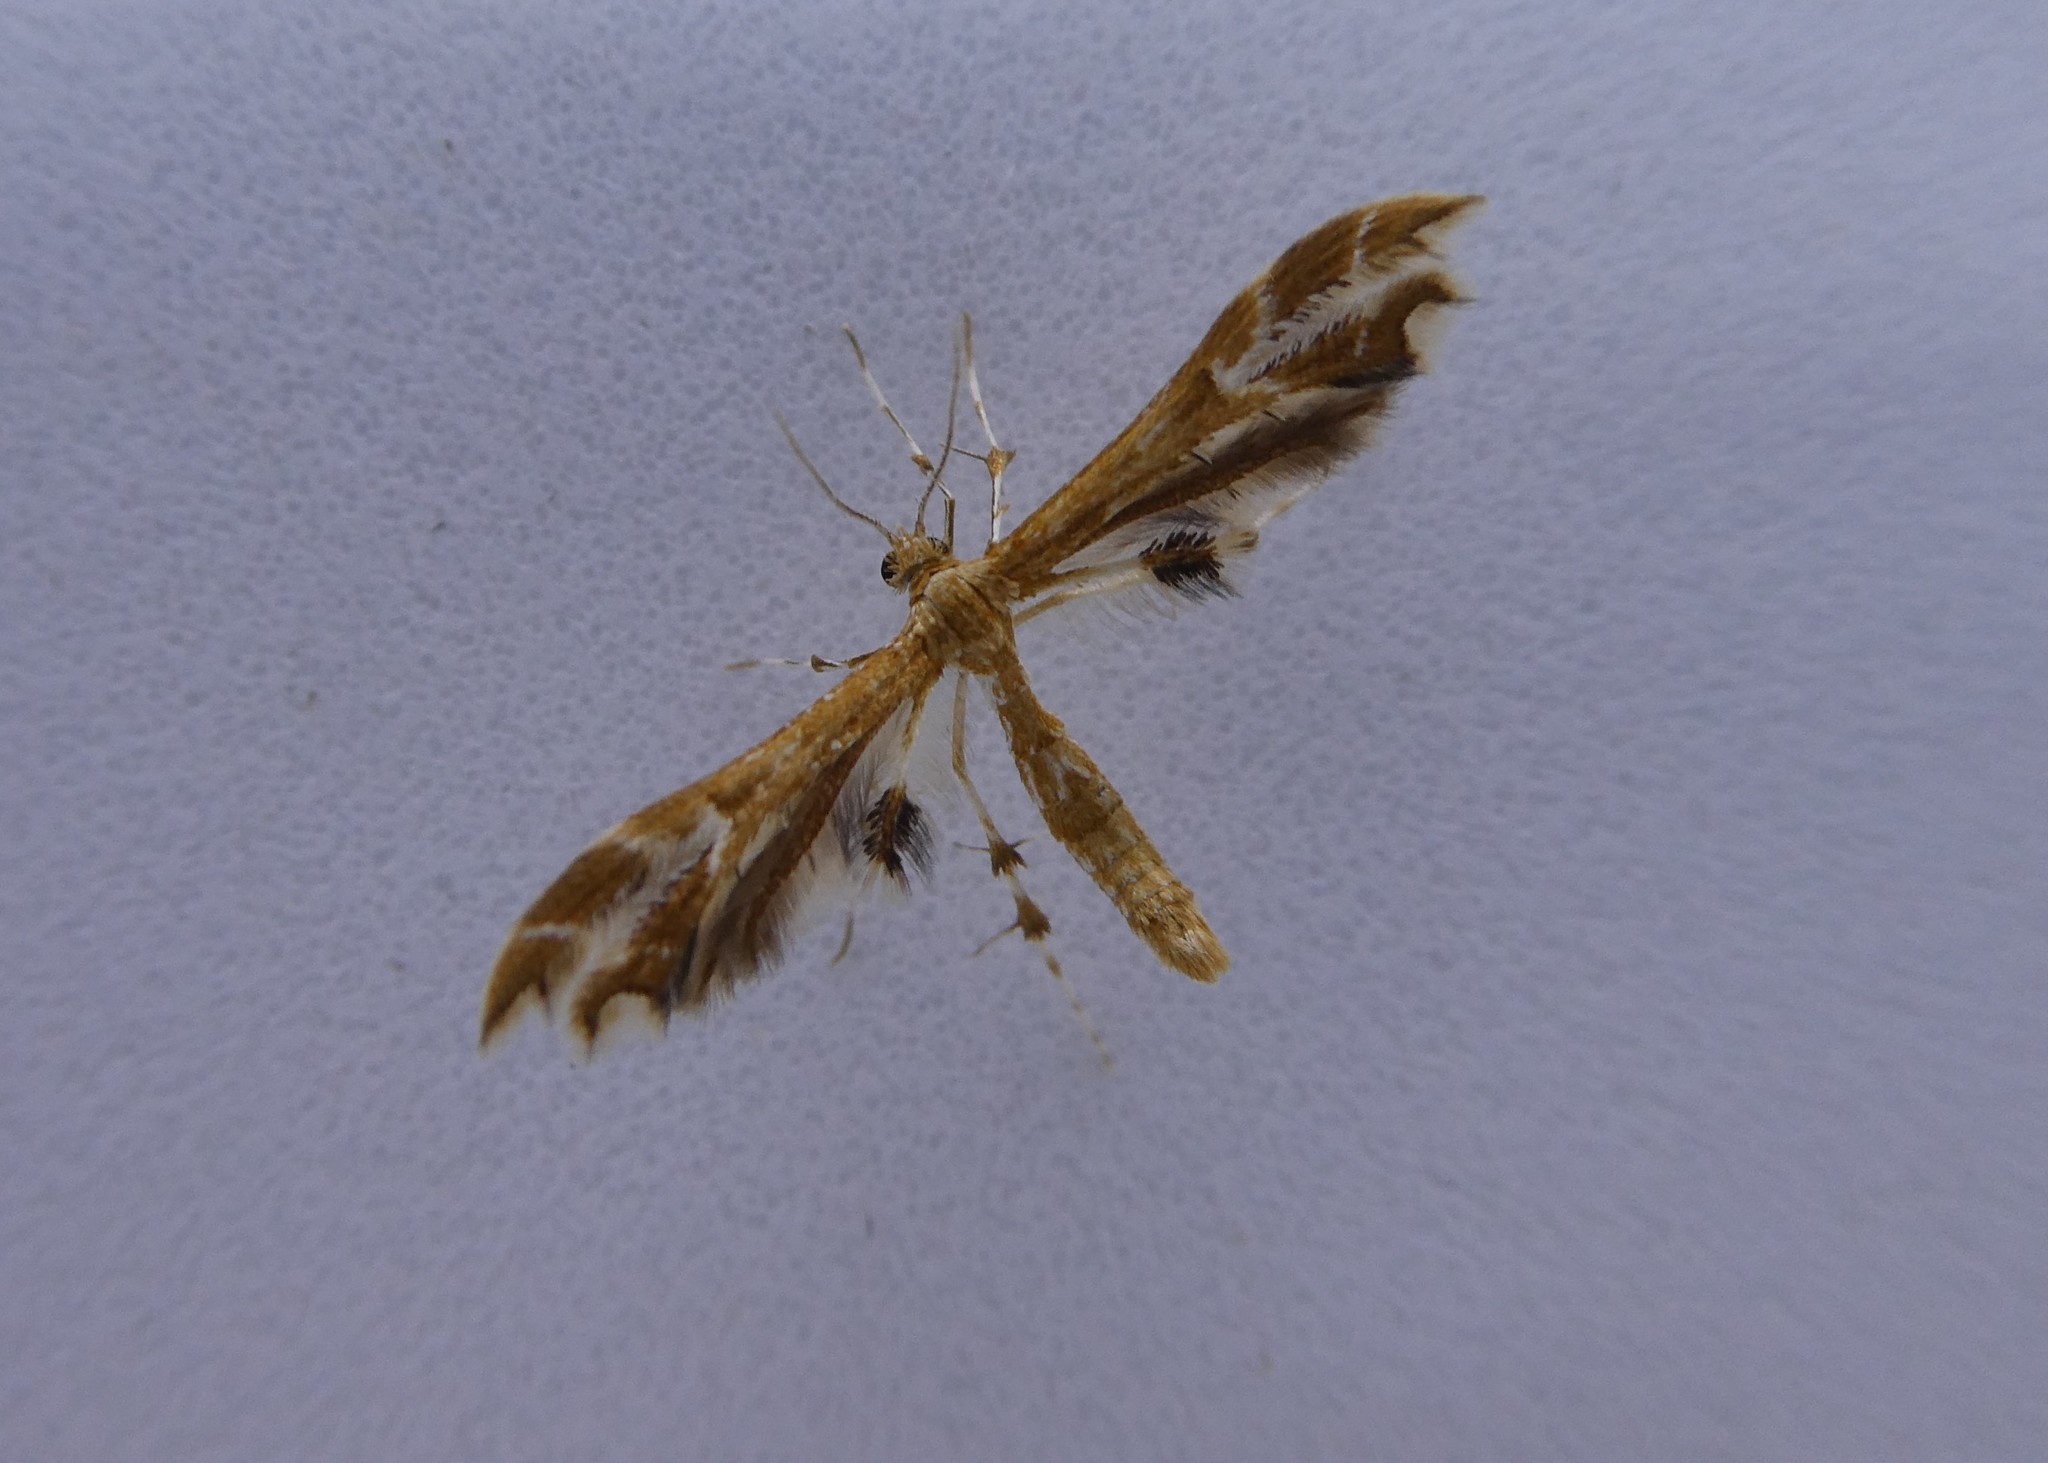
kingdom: Animalia
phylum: Arthropoda
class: Insecta
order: Lepidoptera
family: Pterophoridae
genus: Geina
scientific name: Geina periscelidactylus
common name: Grape plume moth
